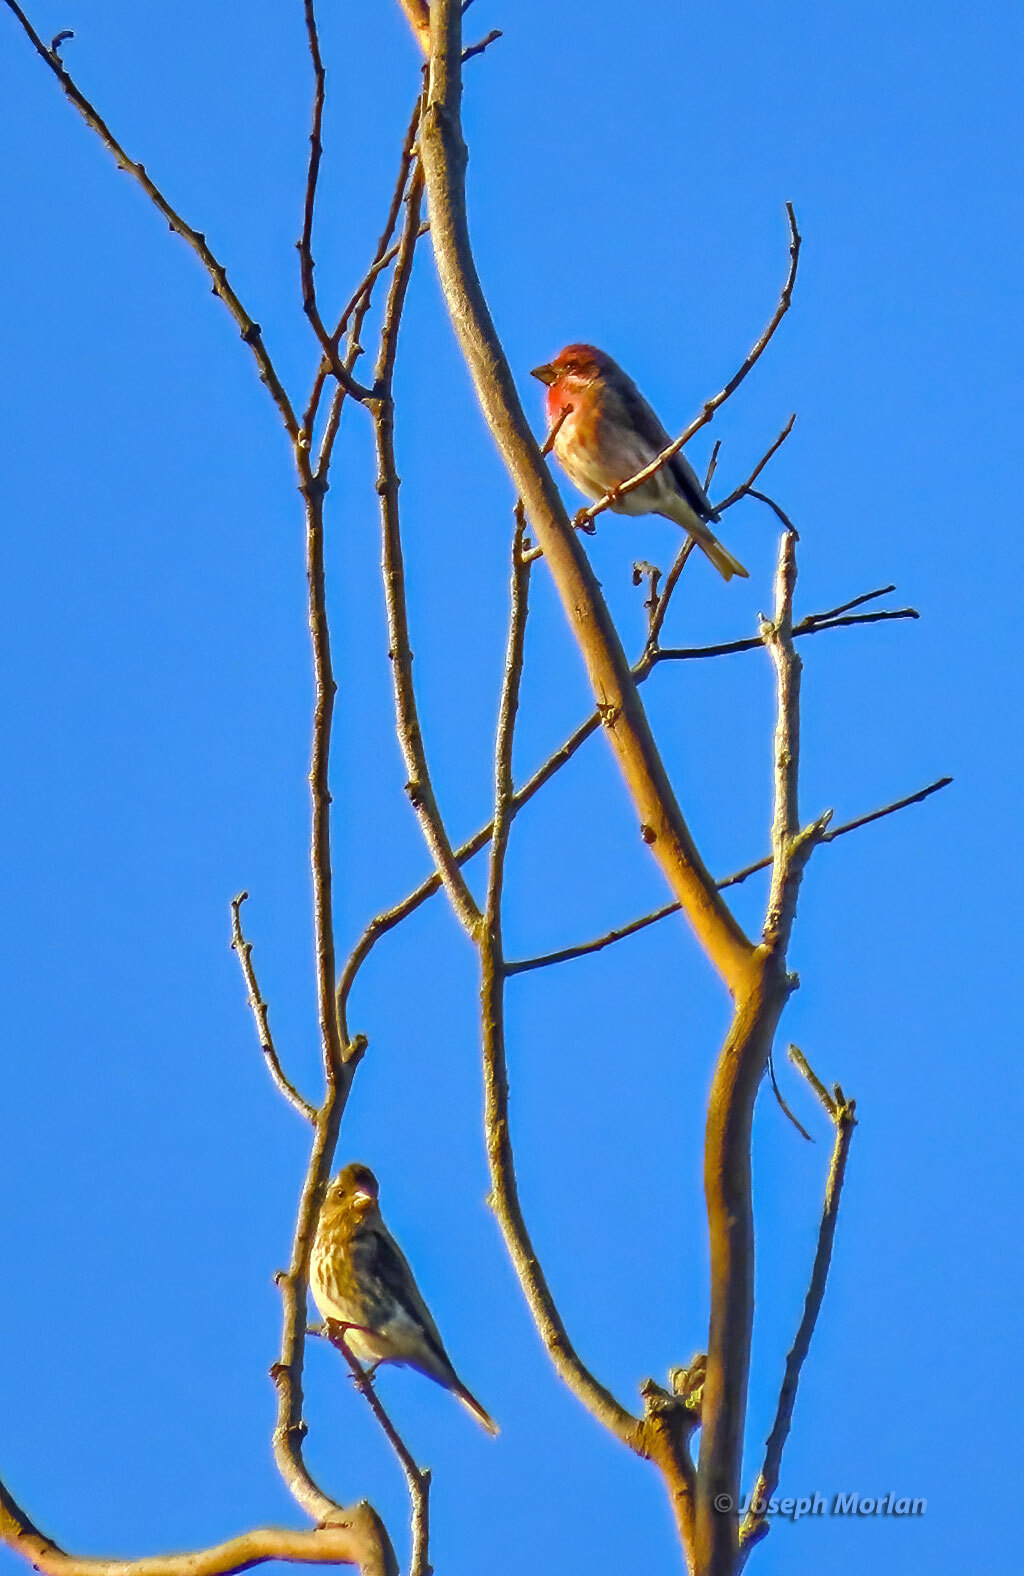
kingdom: Animalia
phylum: Chordata
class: Aves
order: Passeriformes
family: Fringillidae
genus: Haemorhous
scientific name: Haemorhous purpureus
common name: Purple finch
